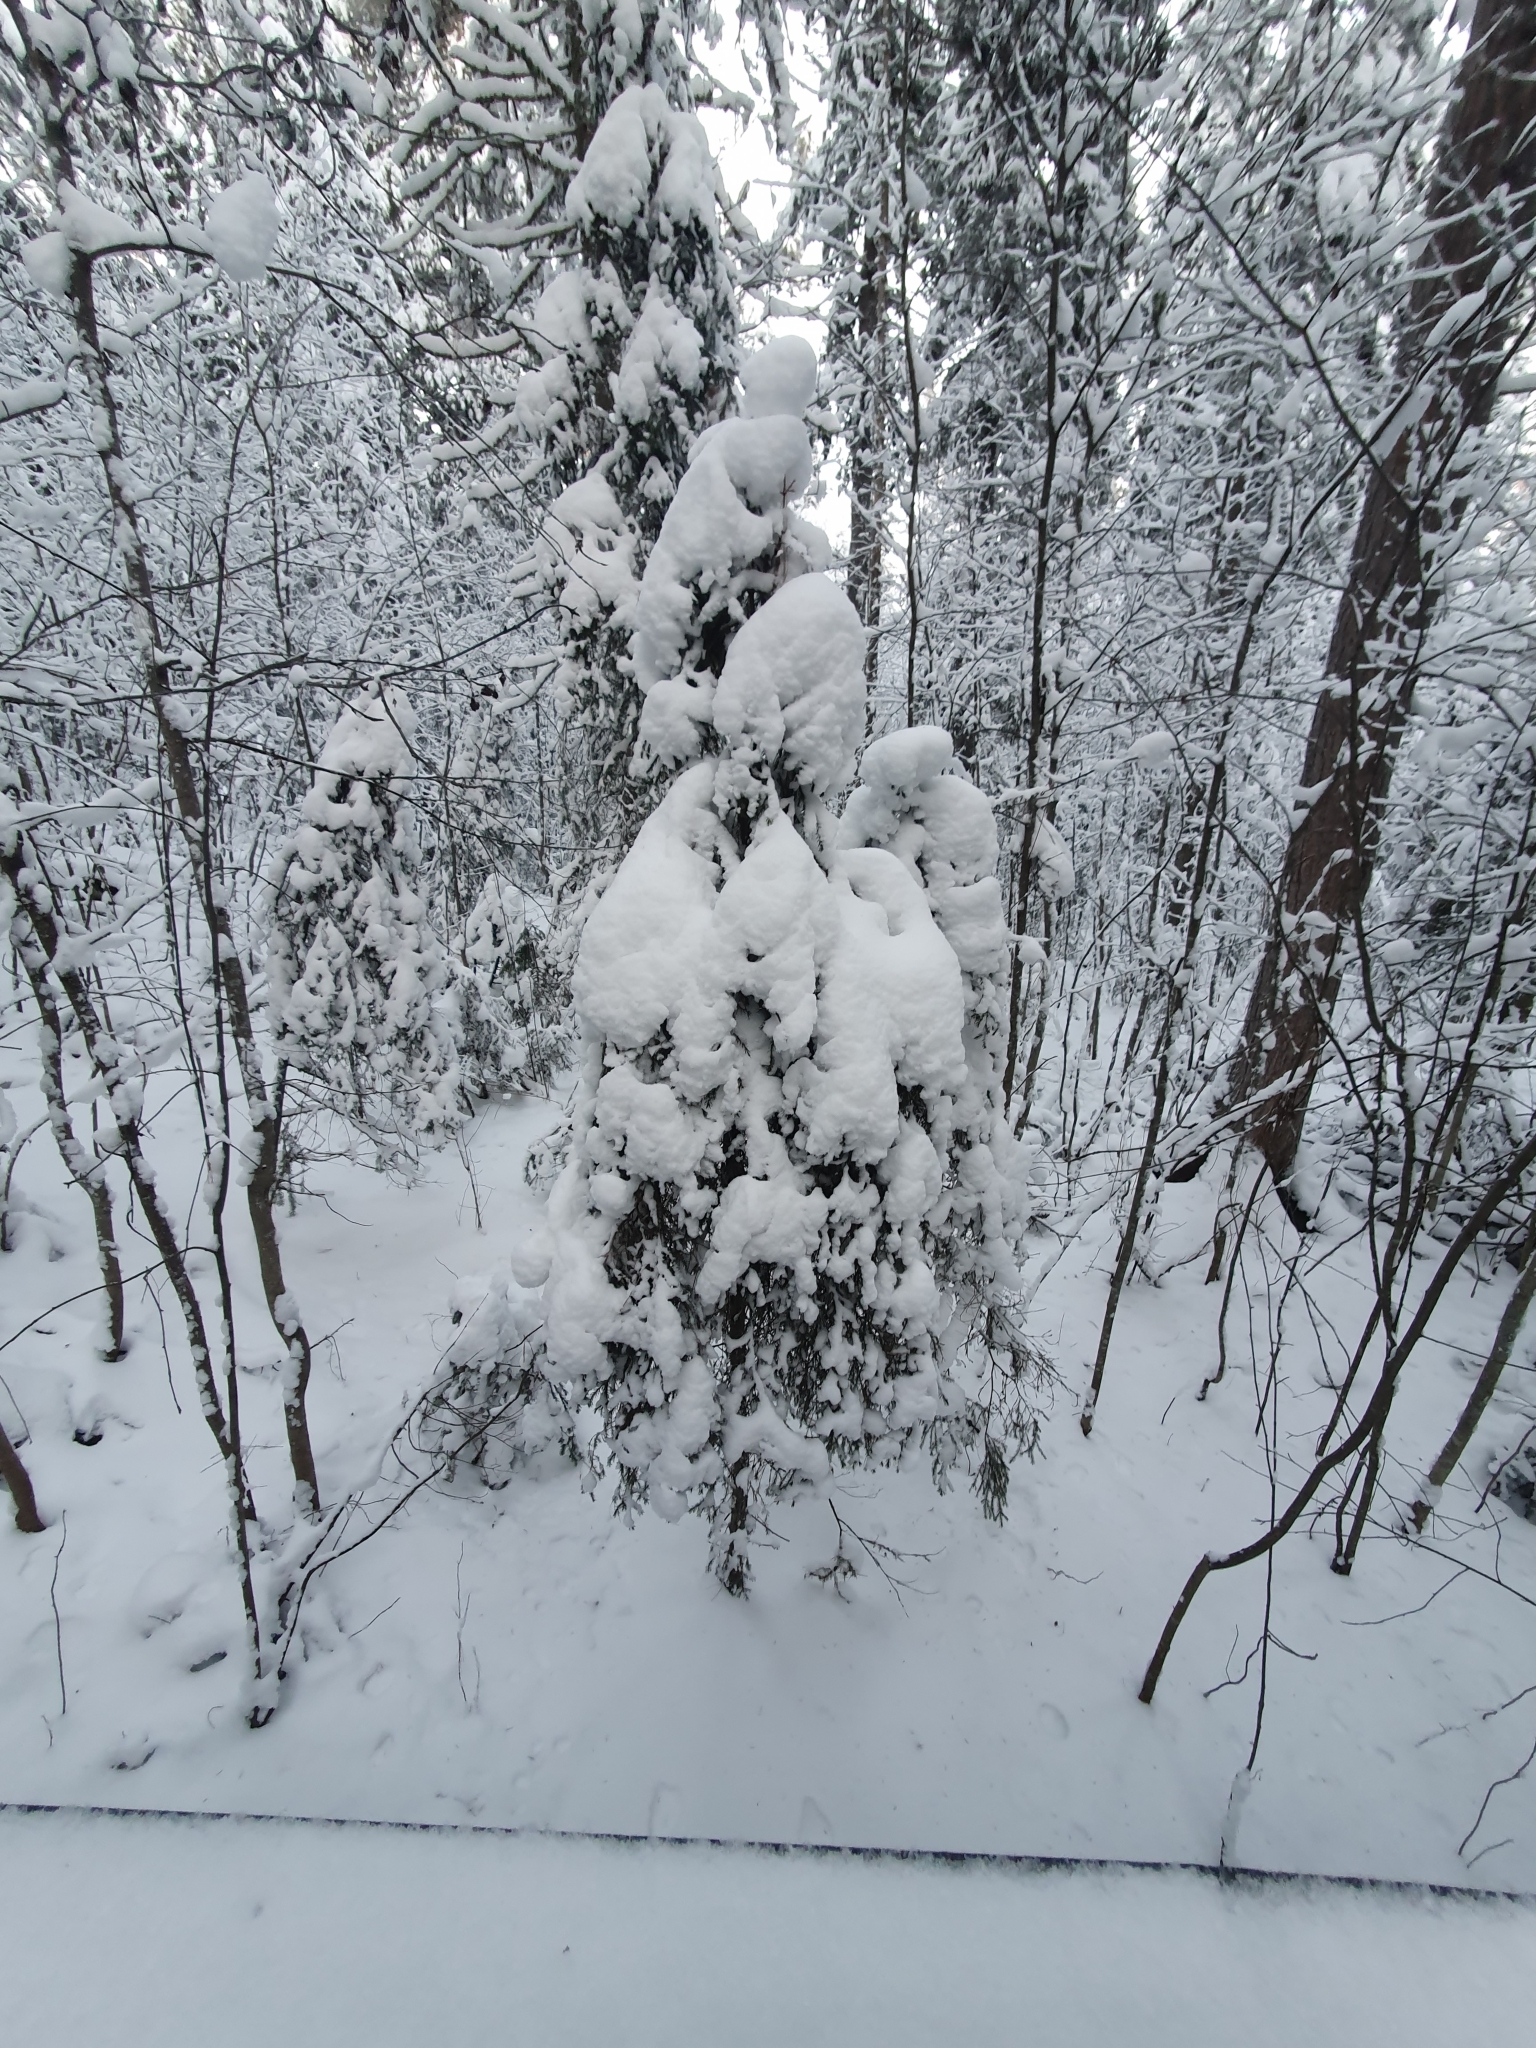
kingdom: Plantae
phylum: Tracheophyta
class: Pinopsida
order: Pinales
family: Pinaceae
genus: Picea
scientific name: Picea obovata
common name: Siberian spruce
